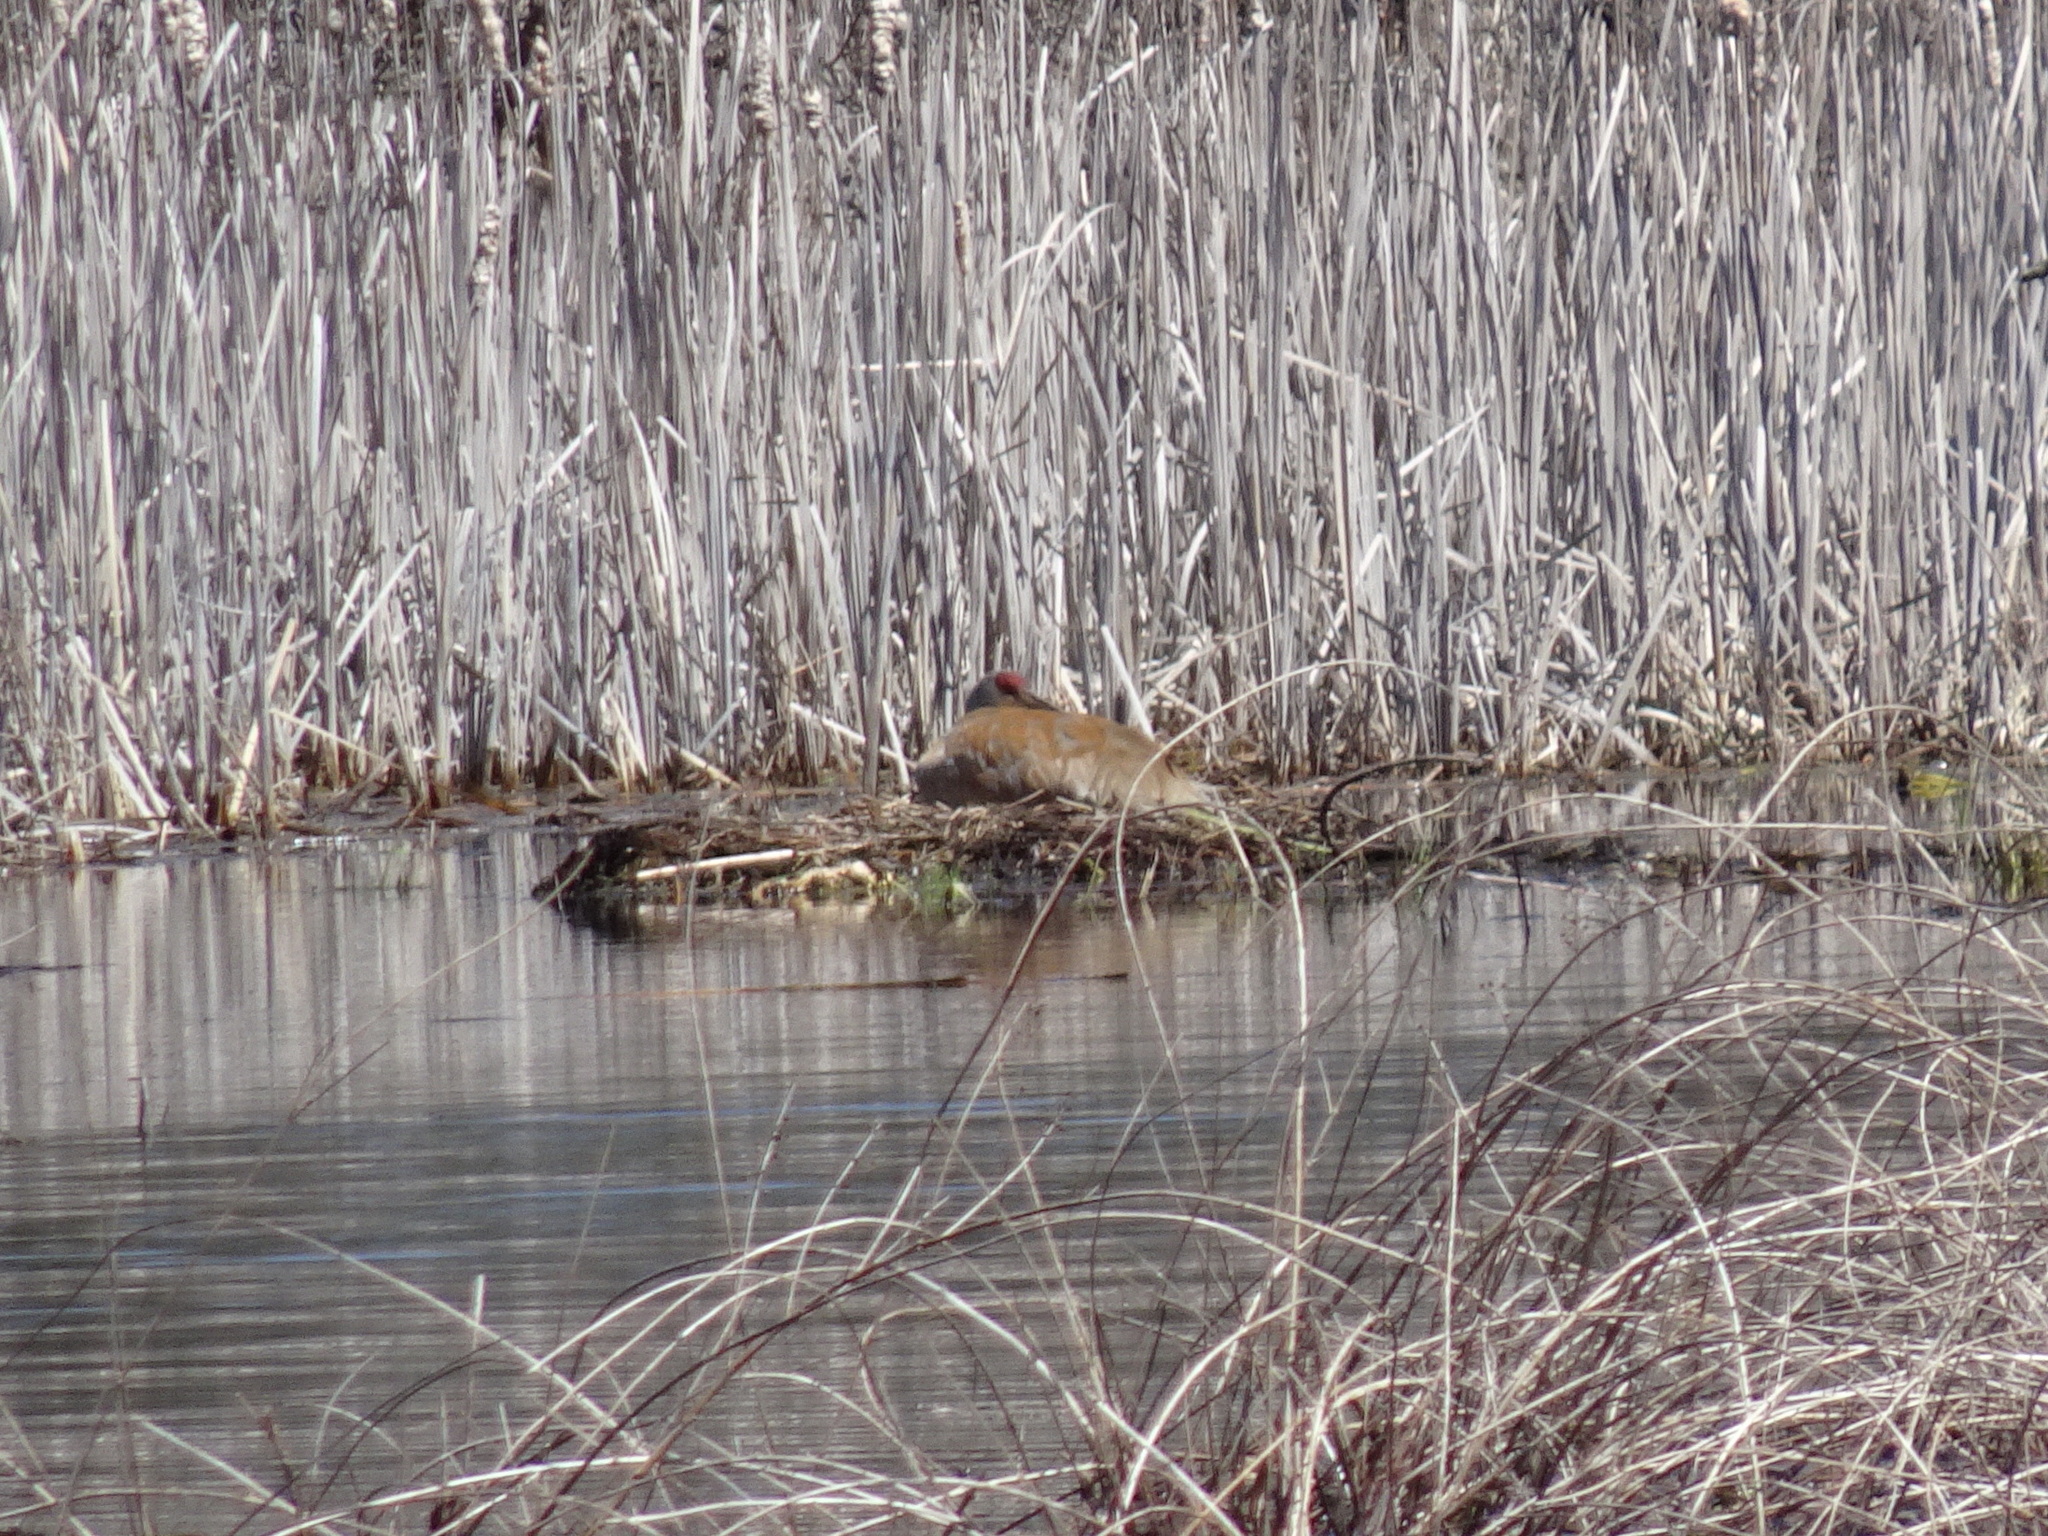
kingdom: Animalia
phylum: Chordata
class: Aves
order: Gruiformes
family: Gruidae
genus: Grus
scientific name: Grus canadensis
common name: Sandhill crane
